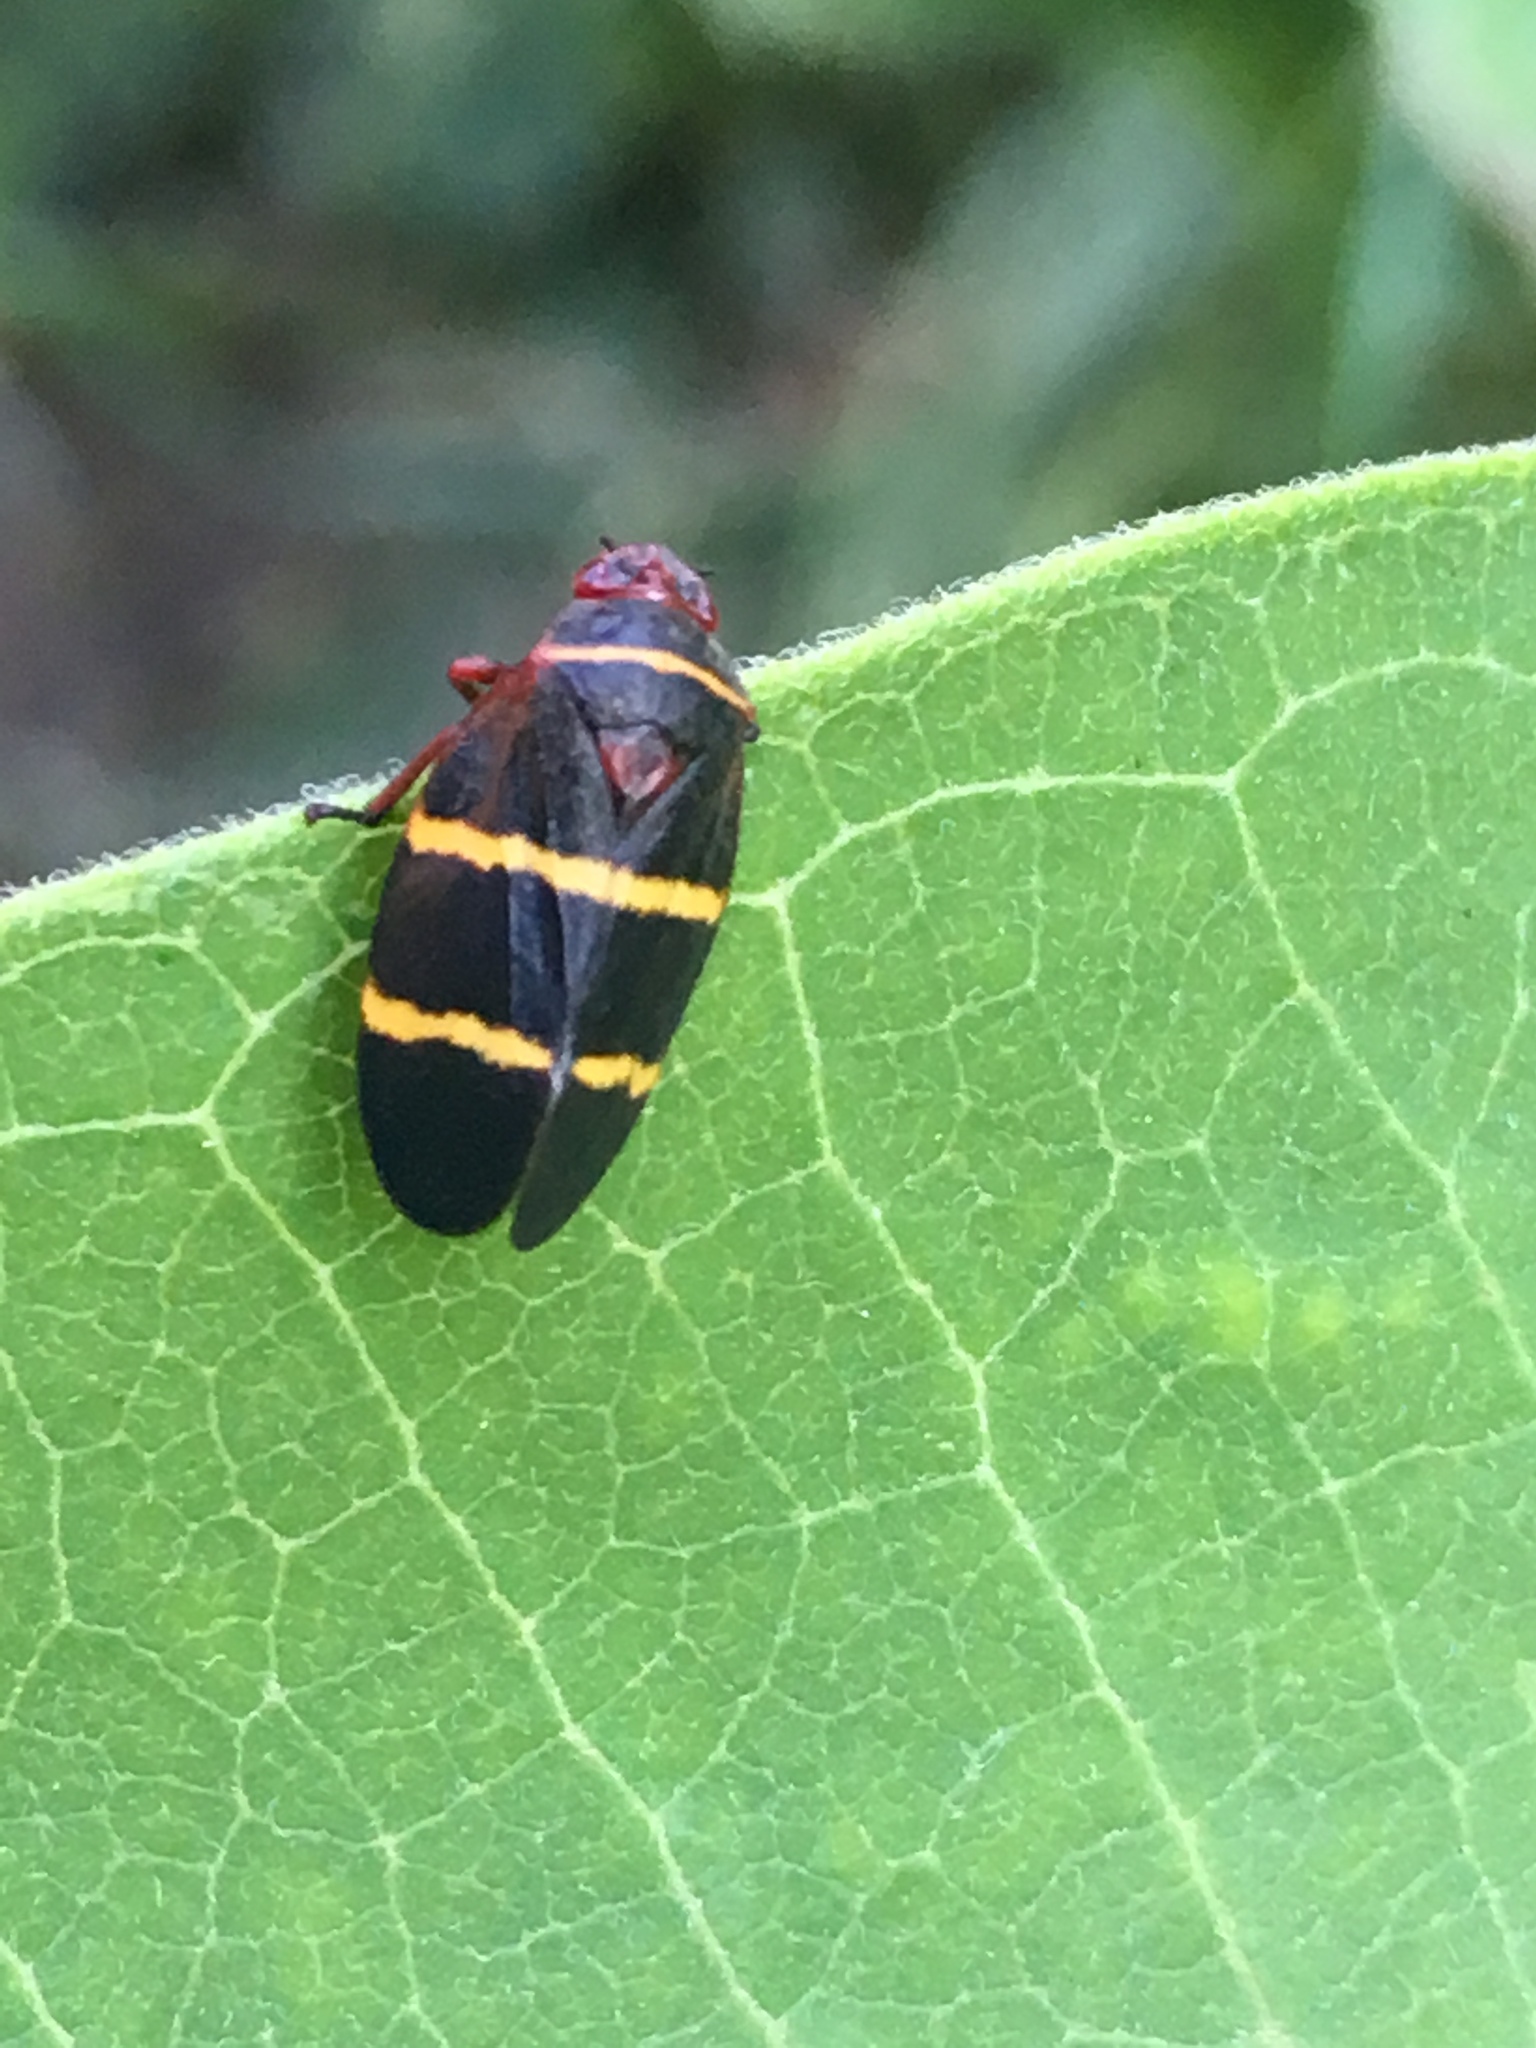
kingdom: Animalia
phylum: Arthropoda
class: Insecta
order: Hemiptera
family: Cercopidae
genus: Prosapia
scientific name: Prosapia bicincta
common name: Twolined spittlebug
